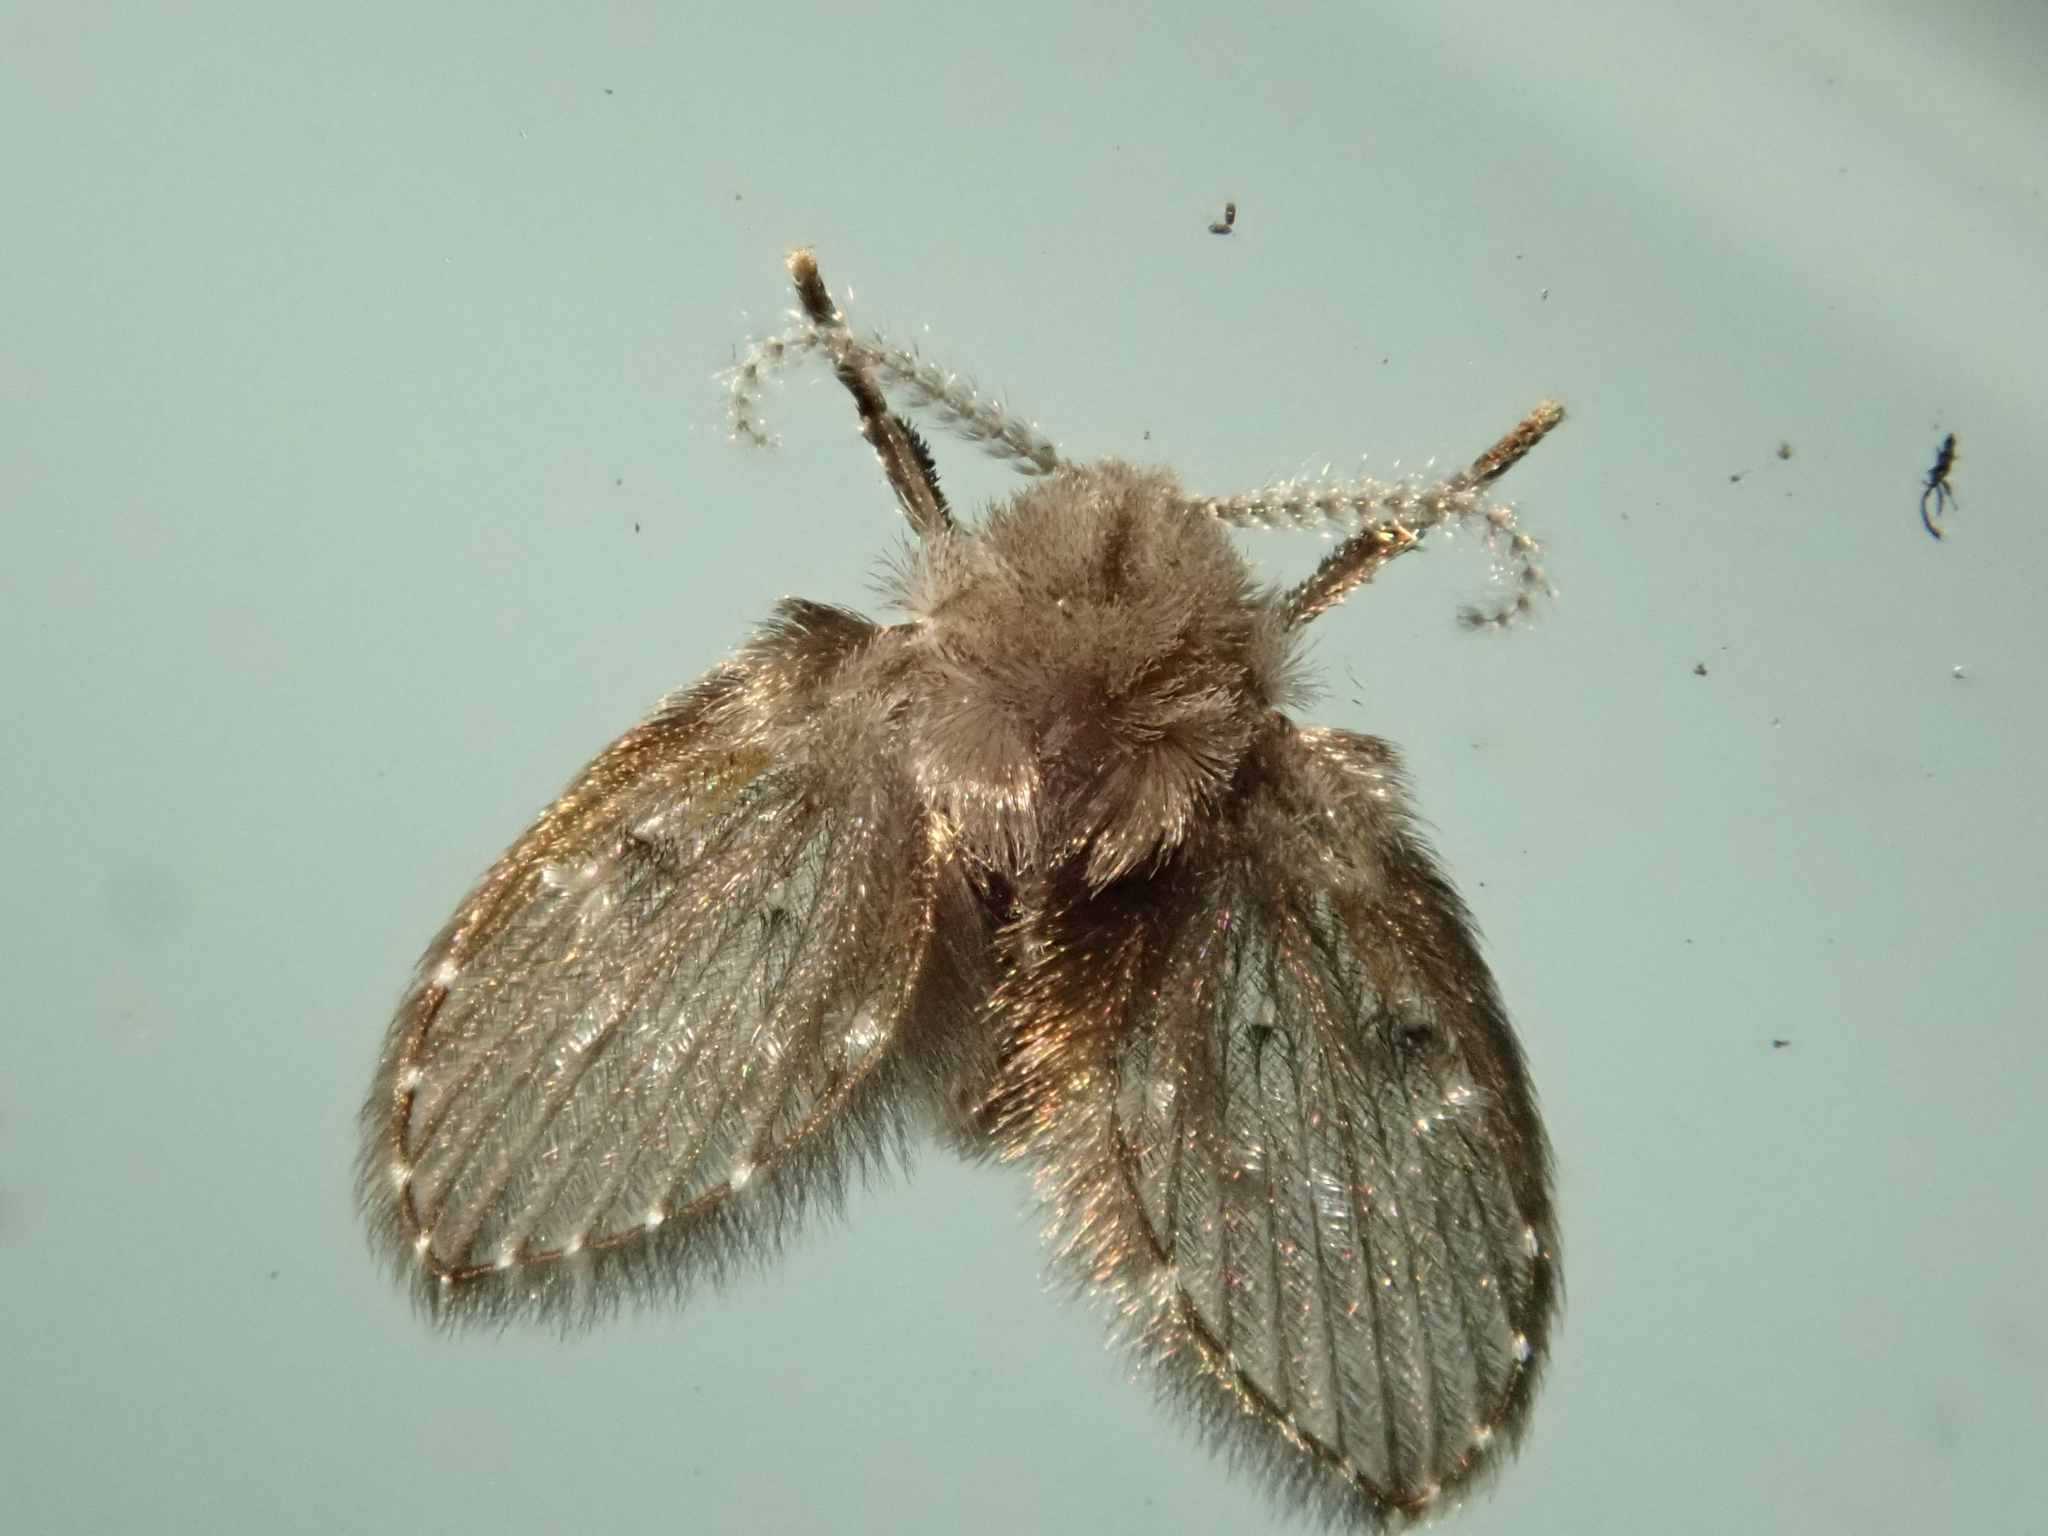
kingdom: Animalia
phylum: Arthropoda
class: Insecta
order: Diptera
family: Psychodidae
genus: Clogmia
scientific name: Clogmia albipunctatus
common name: White-spotted moth fly
